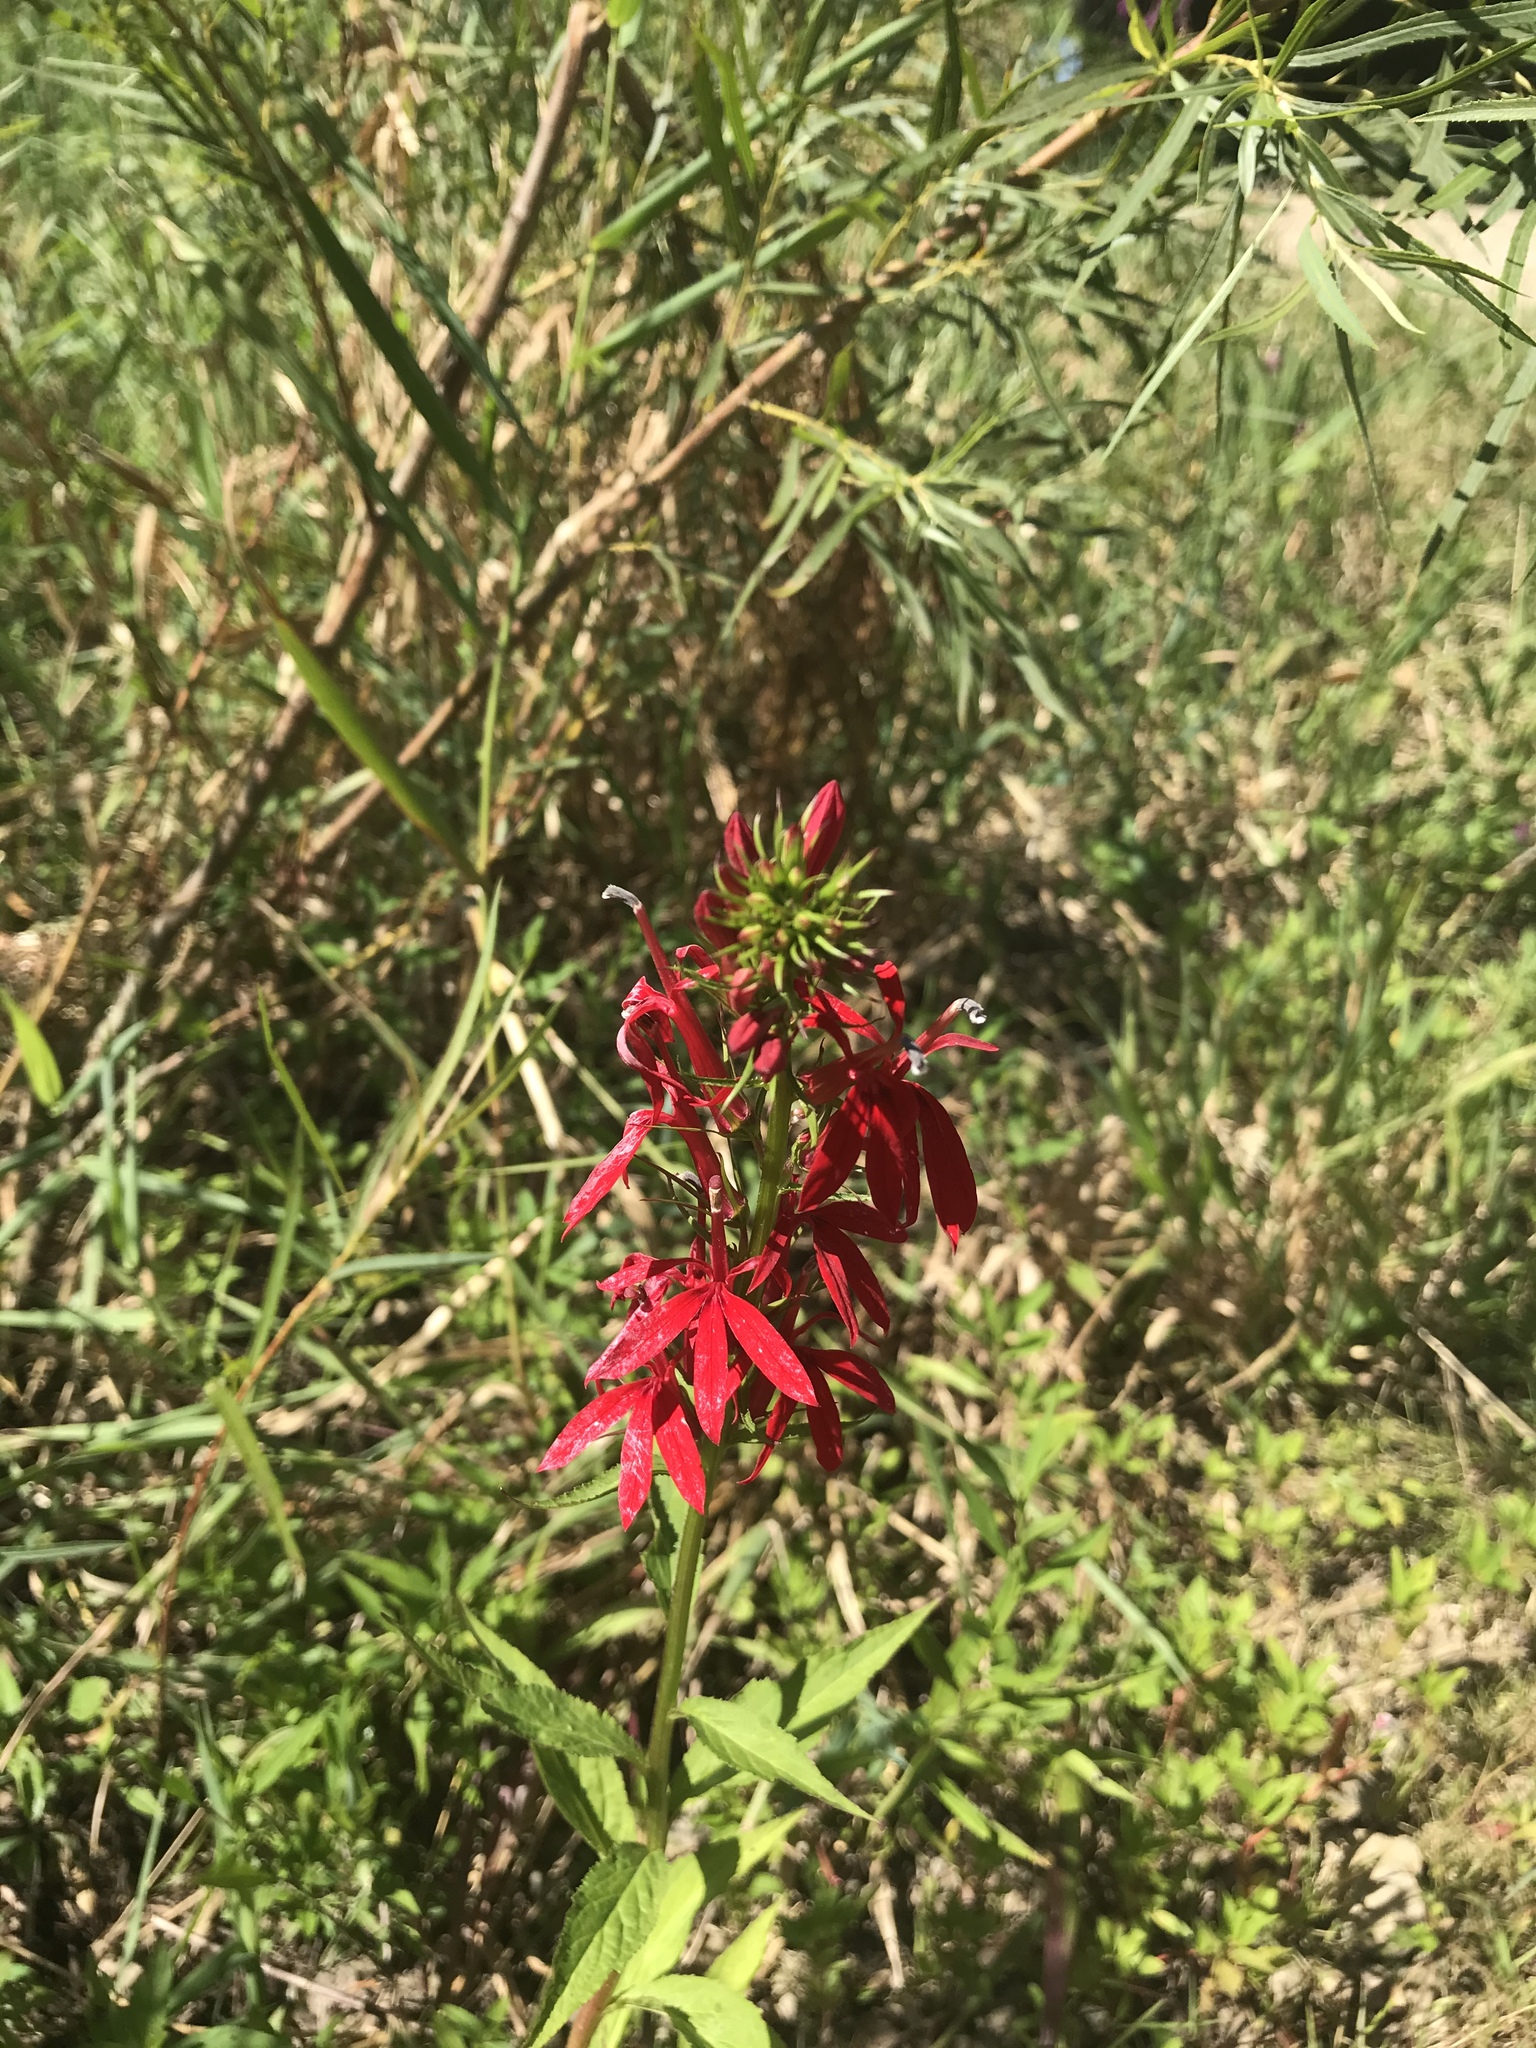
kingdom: Plantae
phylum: Tracheophyta
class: Magnoliopsida
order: Asterales
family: Campanulaceae
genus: Lobelia
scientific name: Lobelia cardinalis
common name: Cardinal flower
